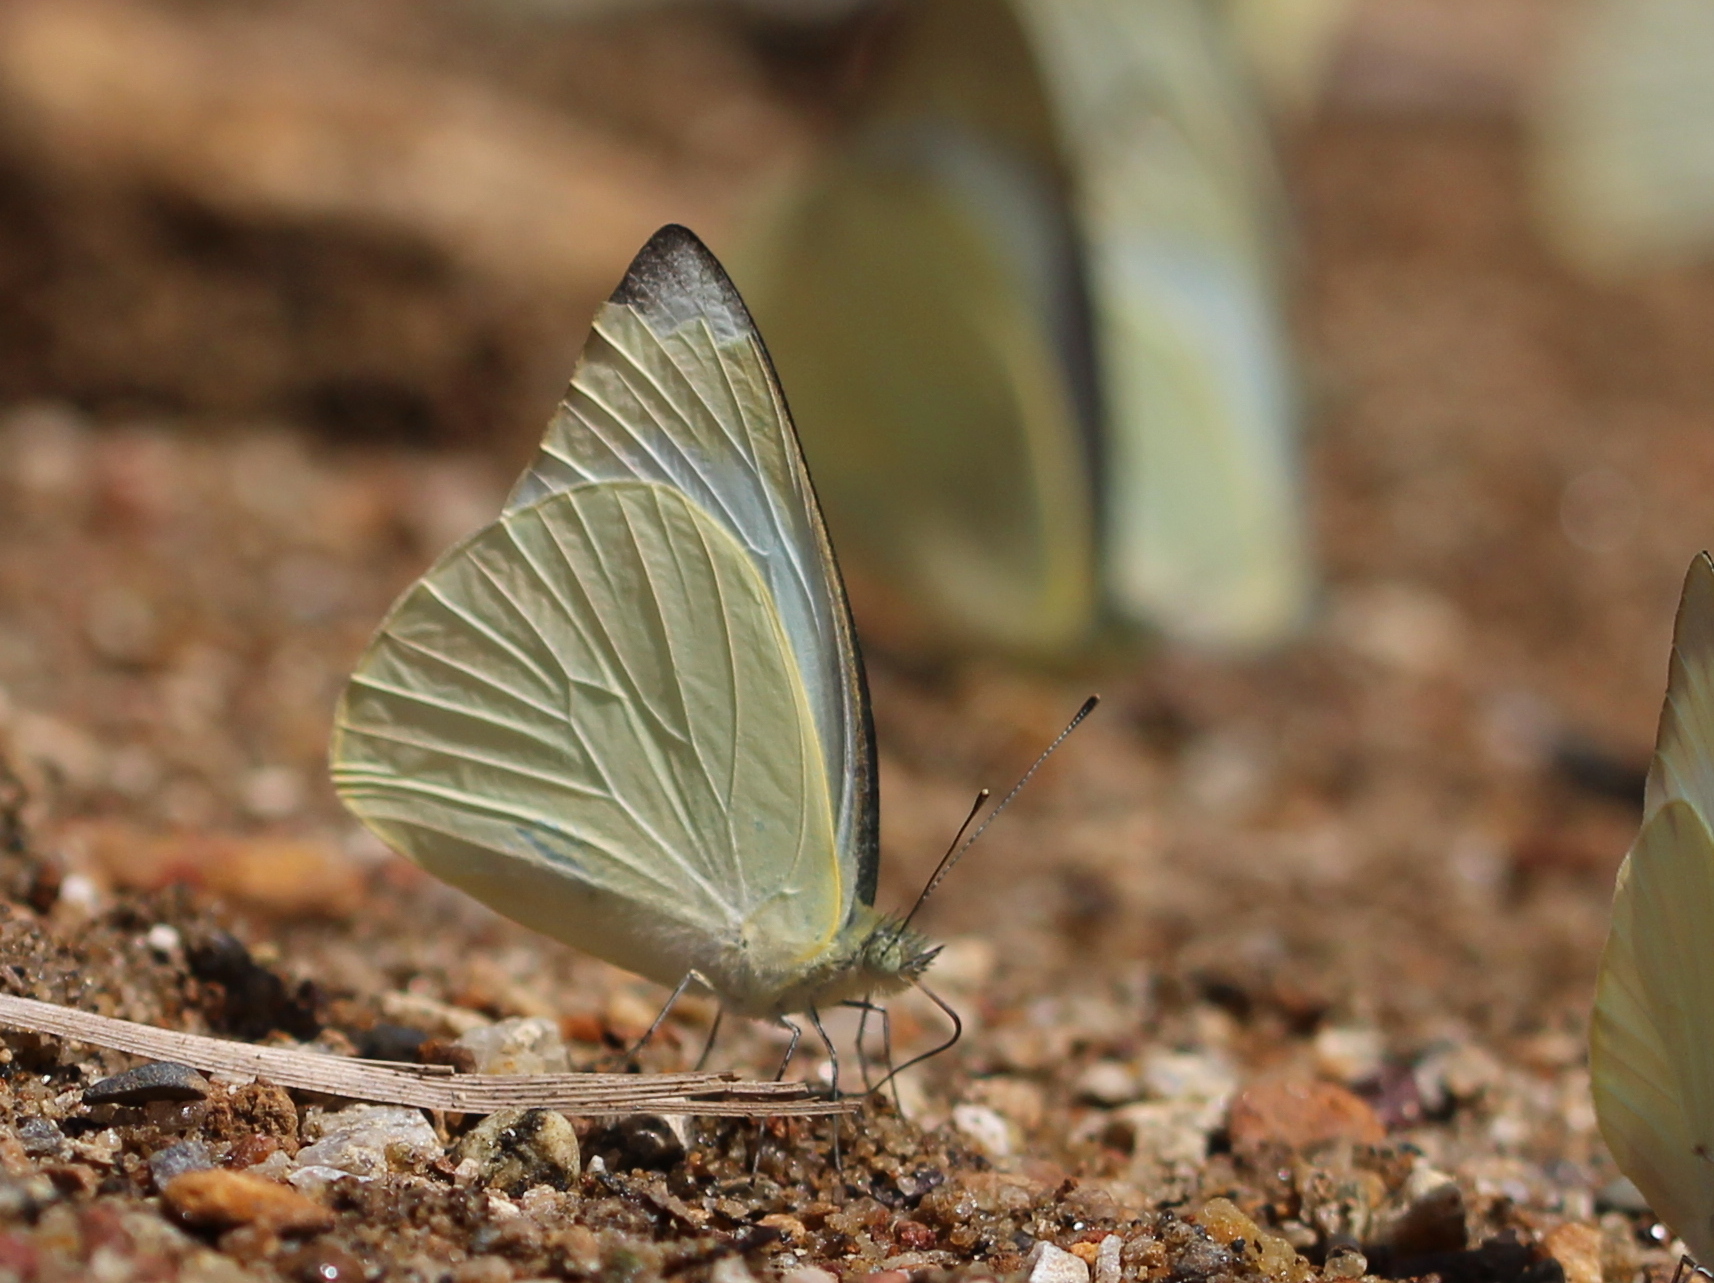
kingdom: Animalia
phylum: Arthropoda
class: Insecta
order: Lepidoptera
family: Pieridae
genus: Appias
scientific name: Appias albina
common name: Common albatross
